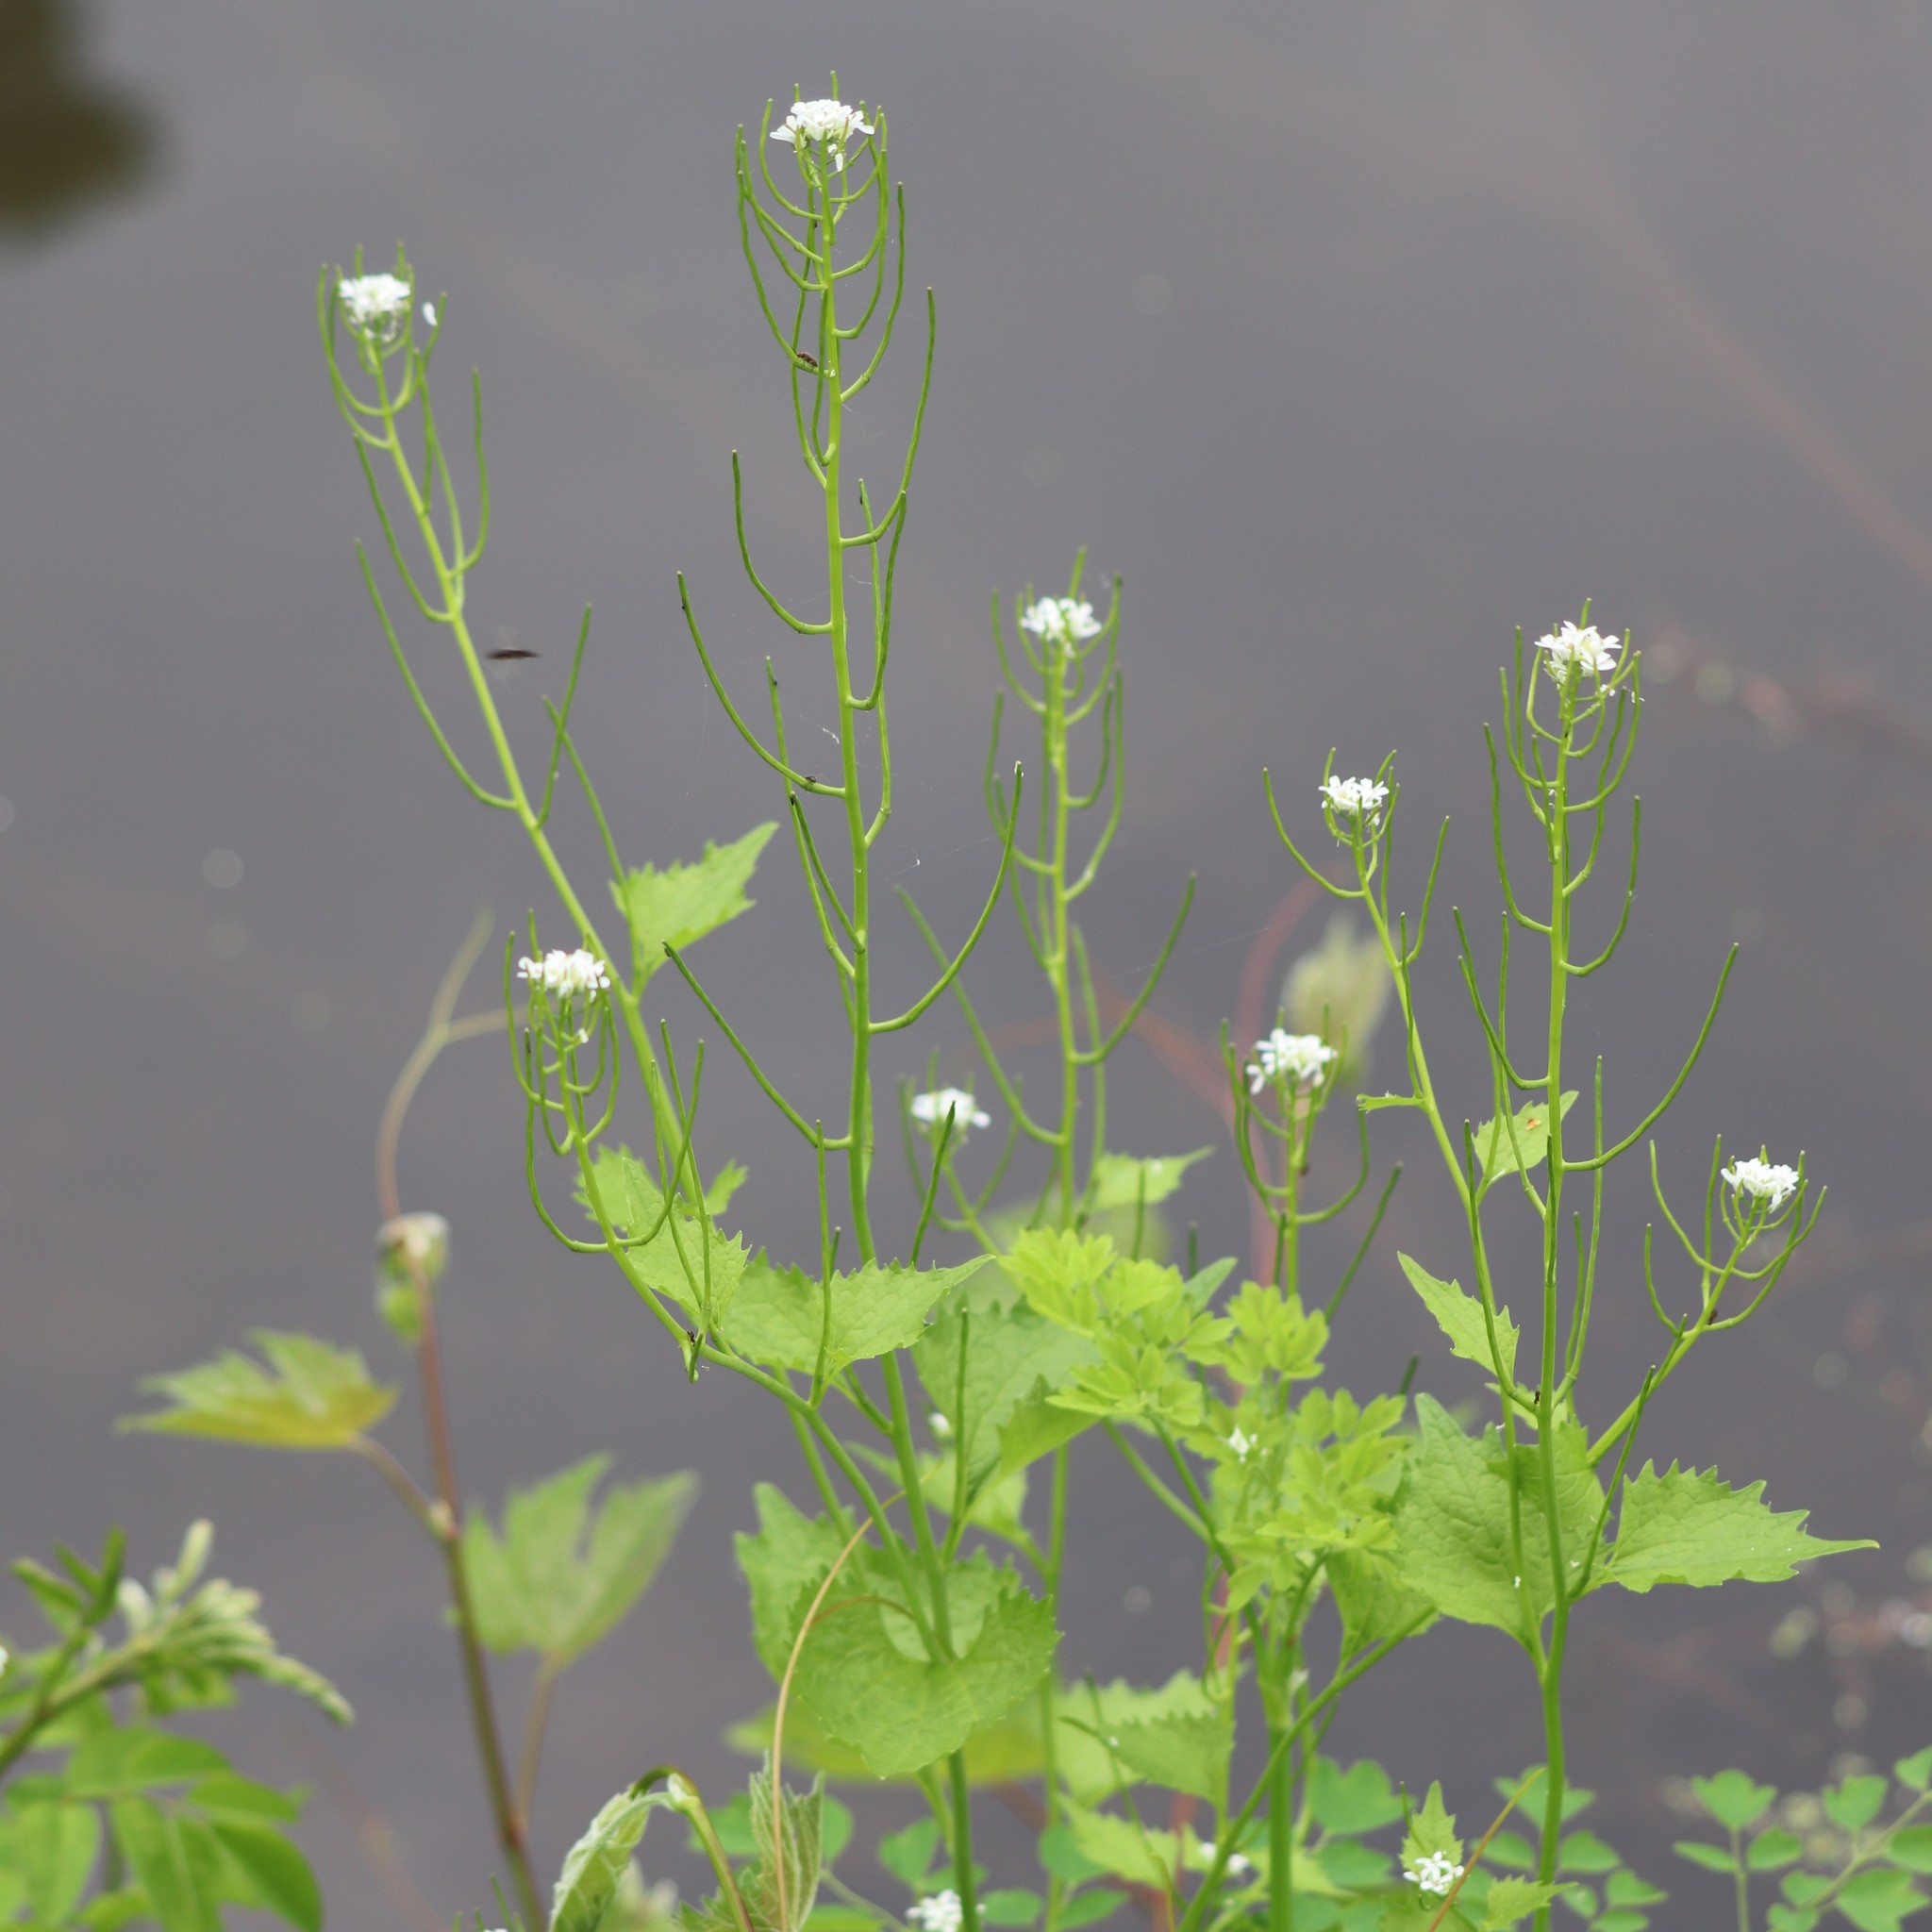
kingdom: Plantae
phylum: Tracheophyta
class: Magnoliopsida
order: Brassicales
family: Brassicaceae
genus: Alliaria
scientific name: Alliaria petiolata
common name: Garlic mustard
